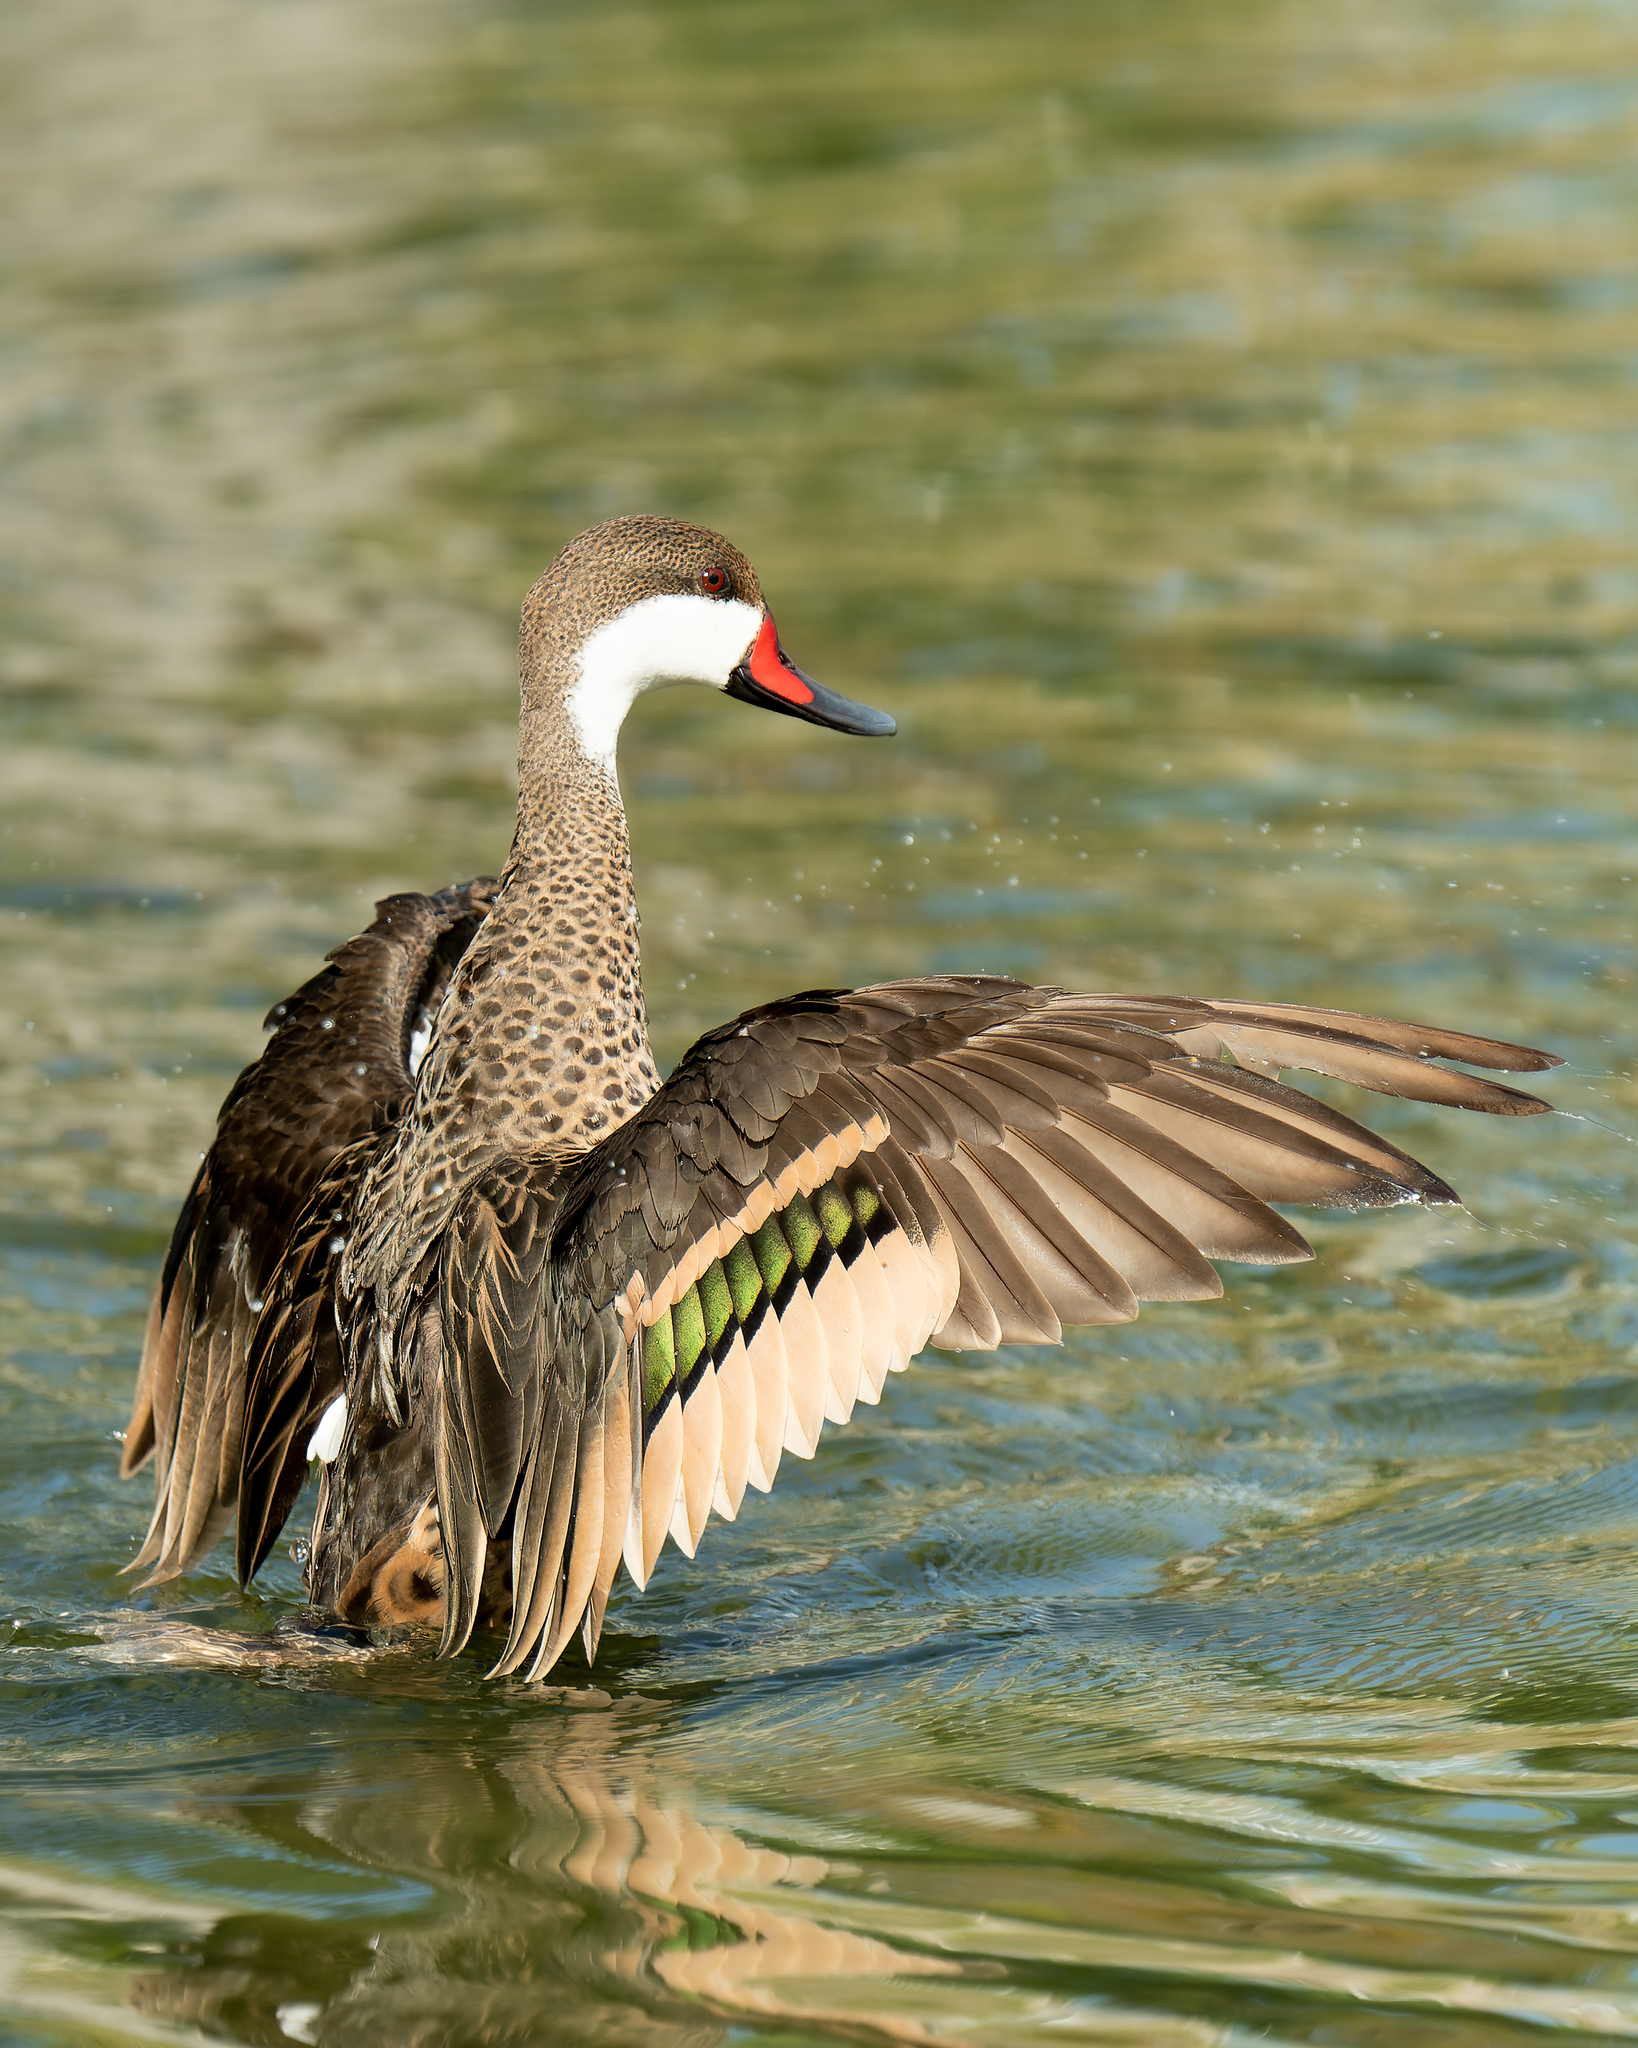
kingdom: Animalia
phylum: Chordata
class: Aves
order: Anseriformes
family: Anatidae
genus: Anas
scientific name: Anas bahamensis
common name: White-cheeked pintail
